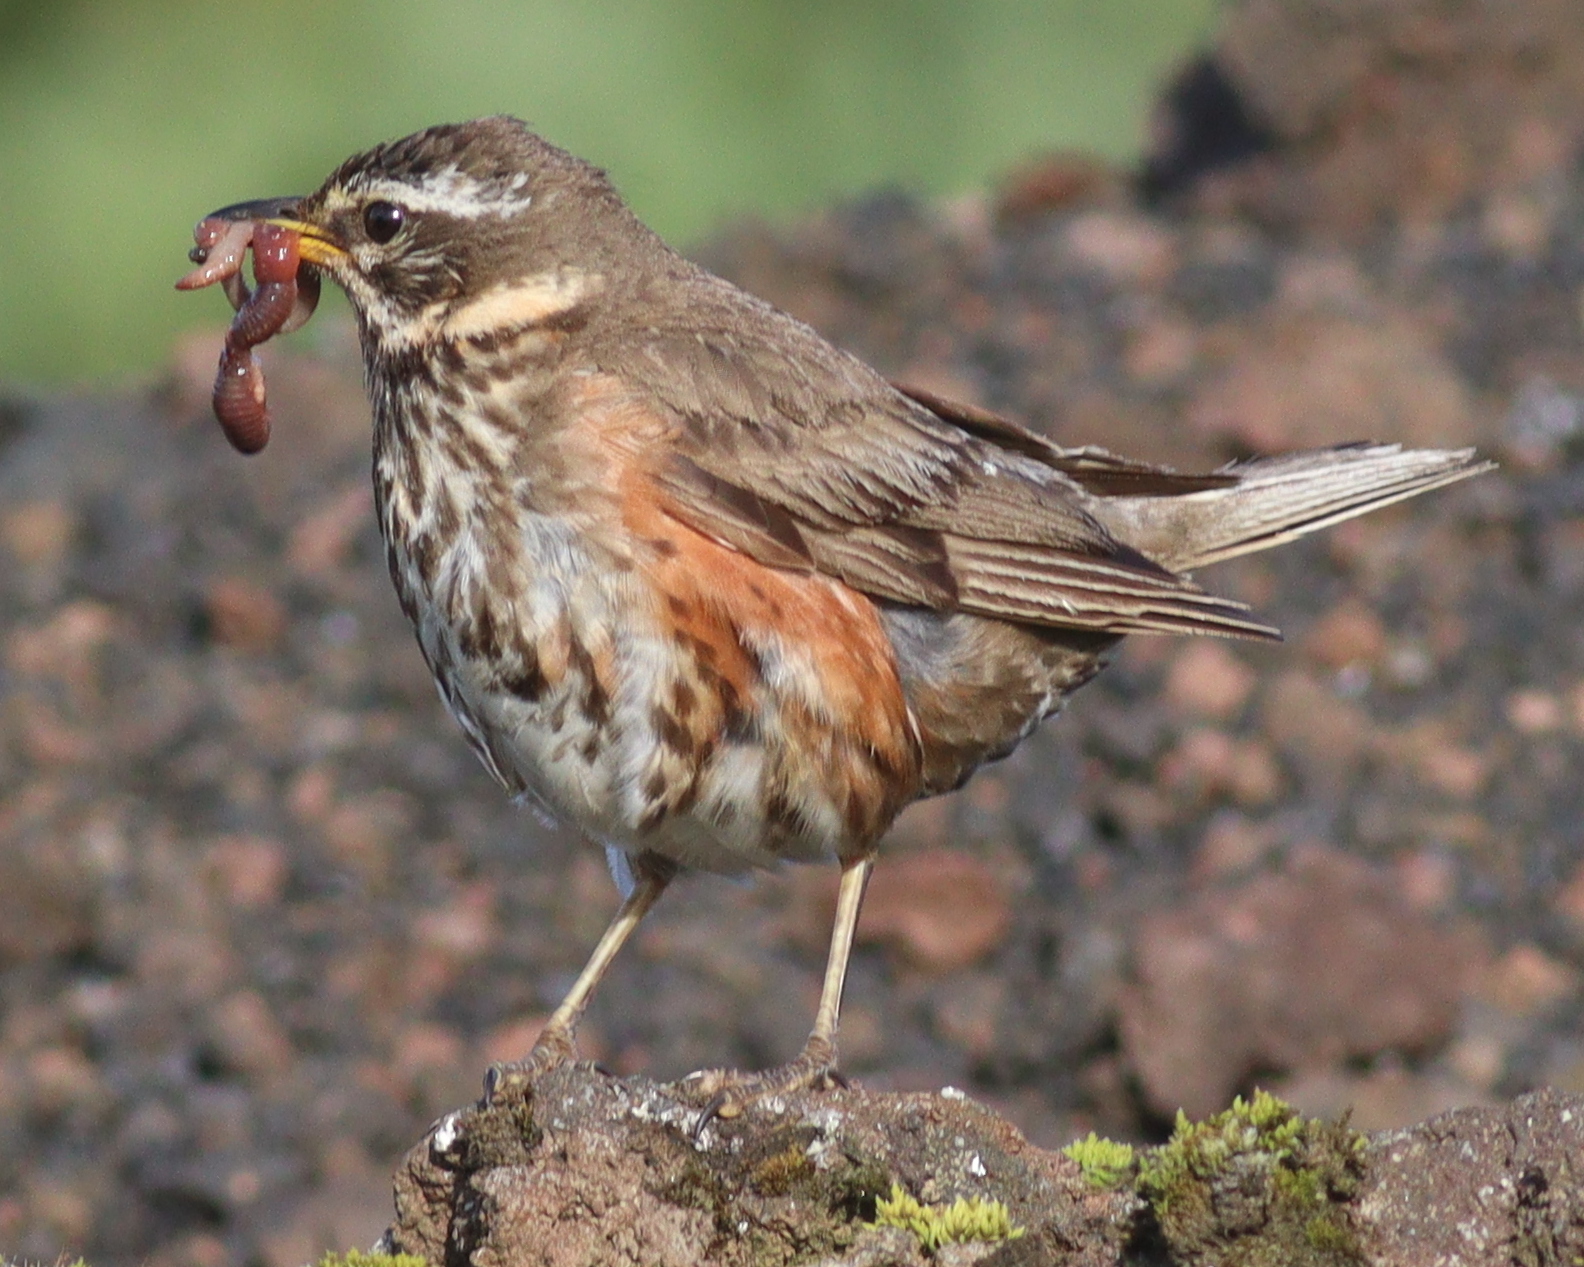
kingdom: Animalia
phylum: Chordata
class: Aves
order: Passeriformes
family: Turdidae
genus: Turdus
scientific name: Turdus iliacus
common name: Redwing
